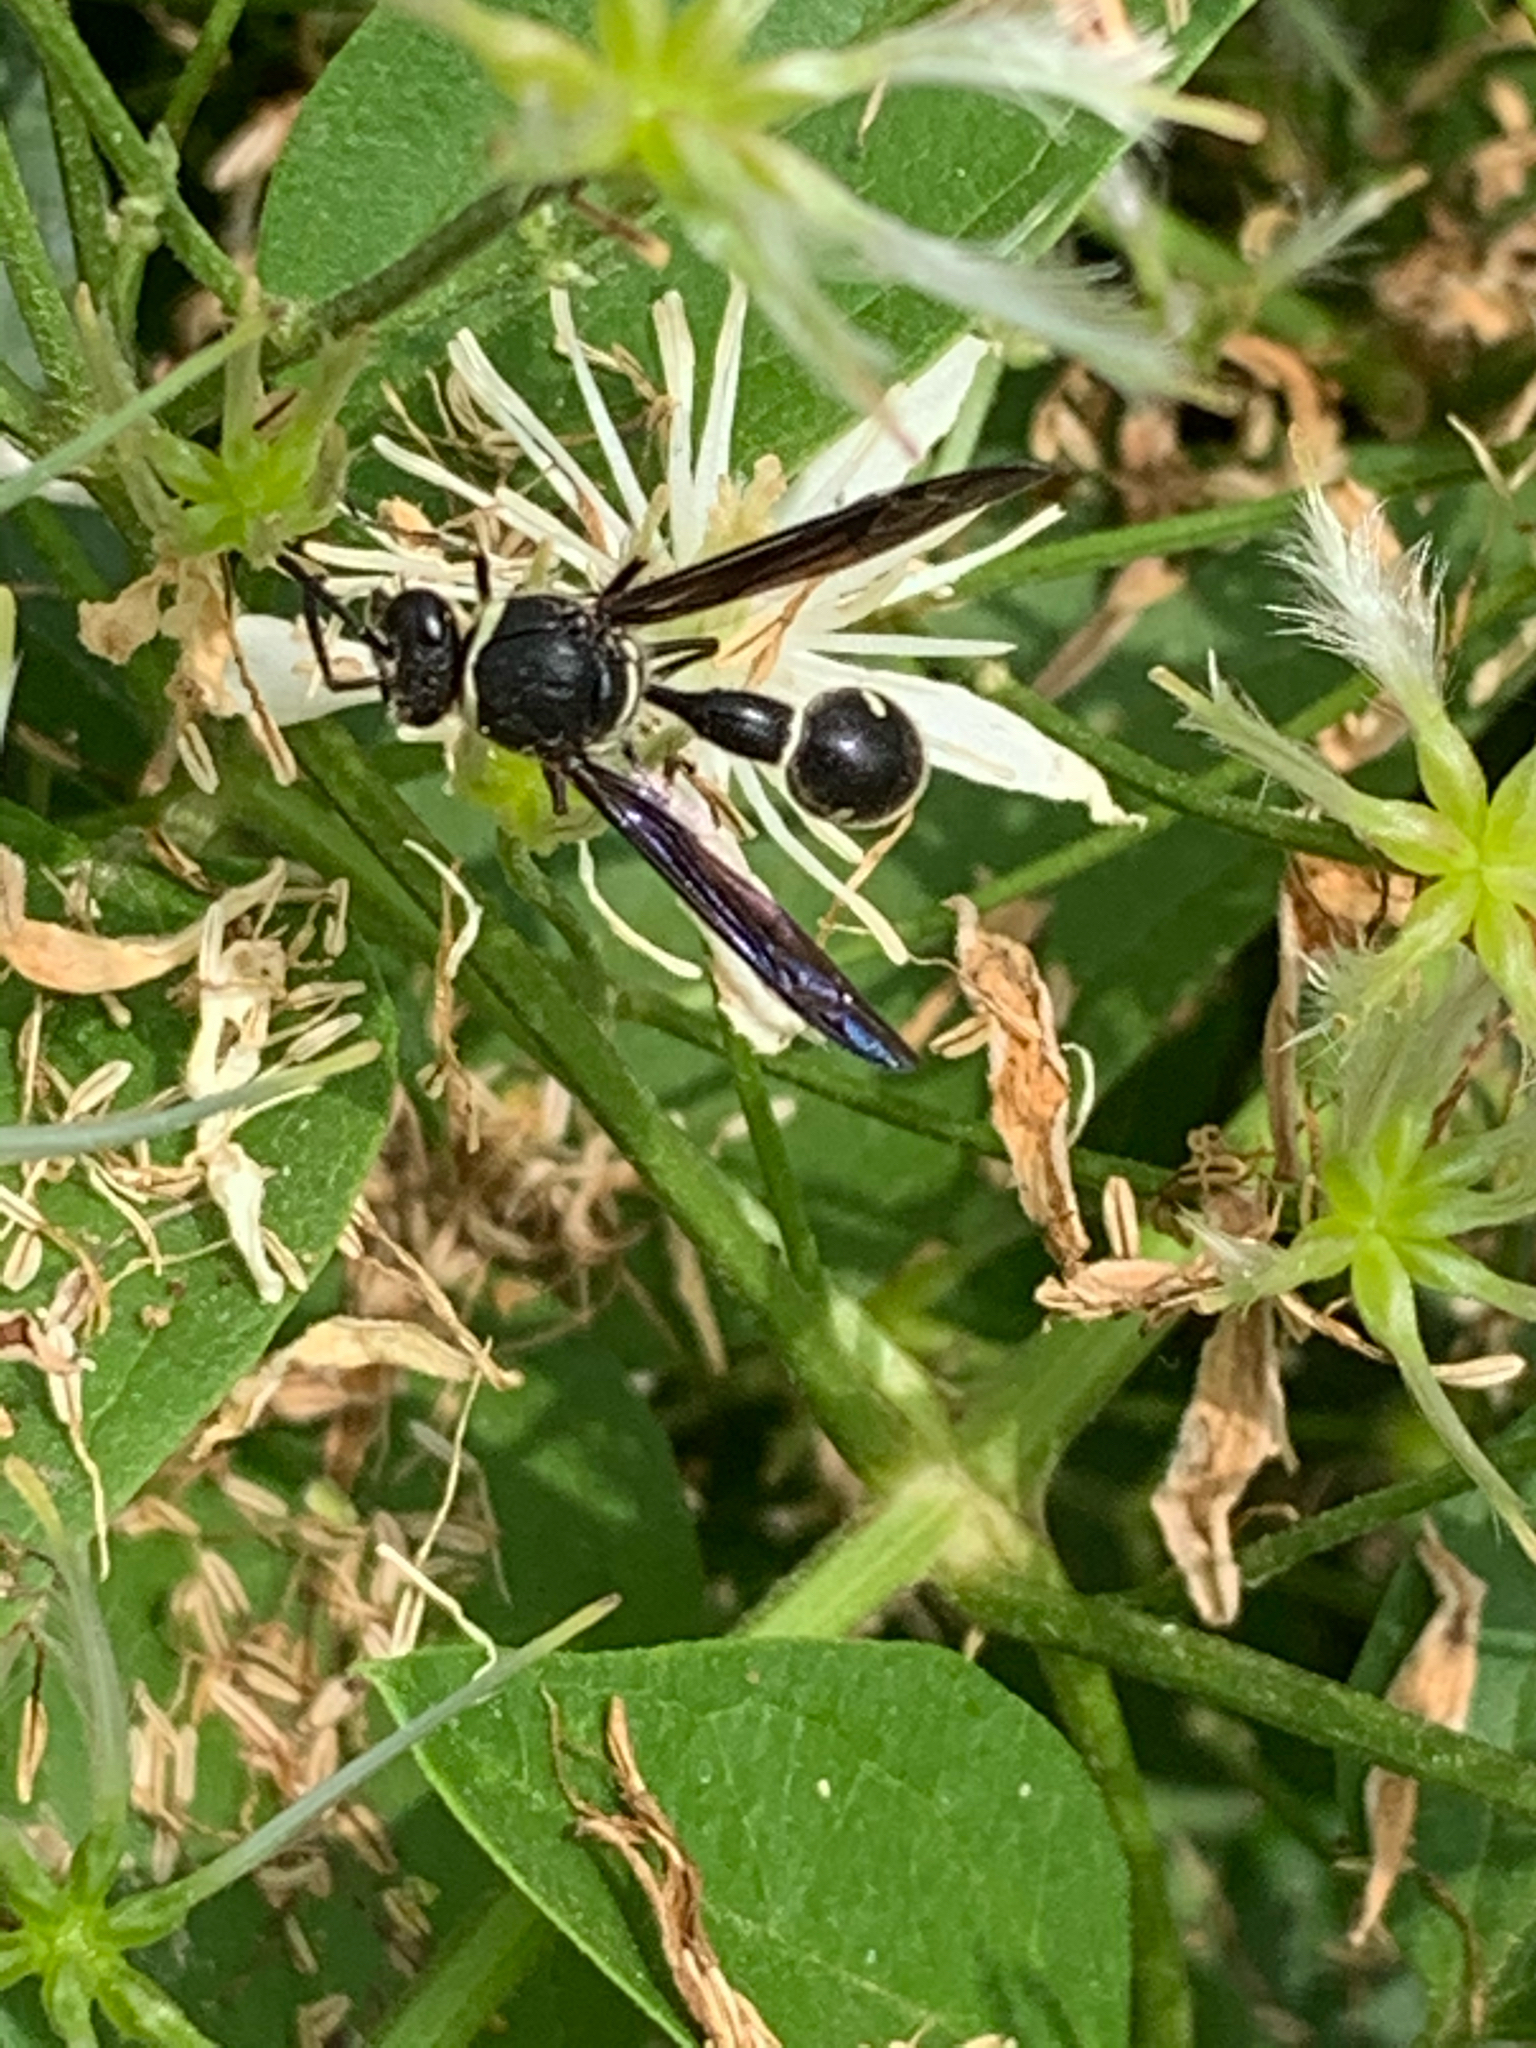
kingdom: Animalia
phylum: Arthropoda
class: Insecta
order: Hymenoptera
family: Vespidae
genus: Eumenes
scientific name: Eumenes fraternus
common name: Fraternal potter wasp
